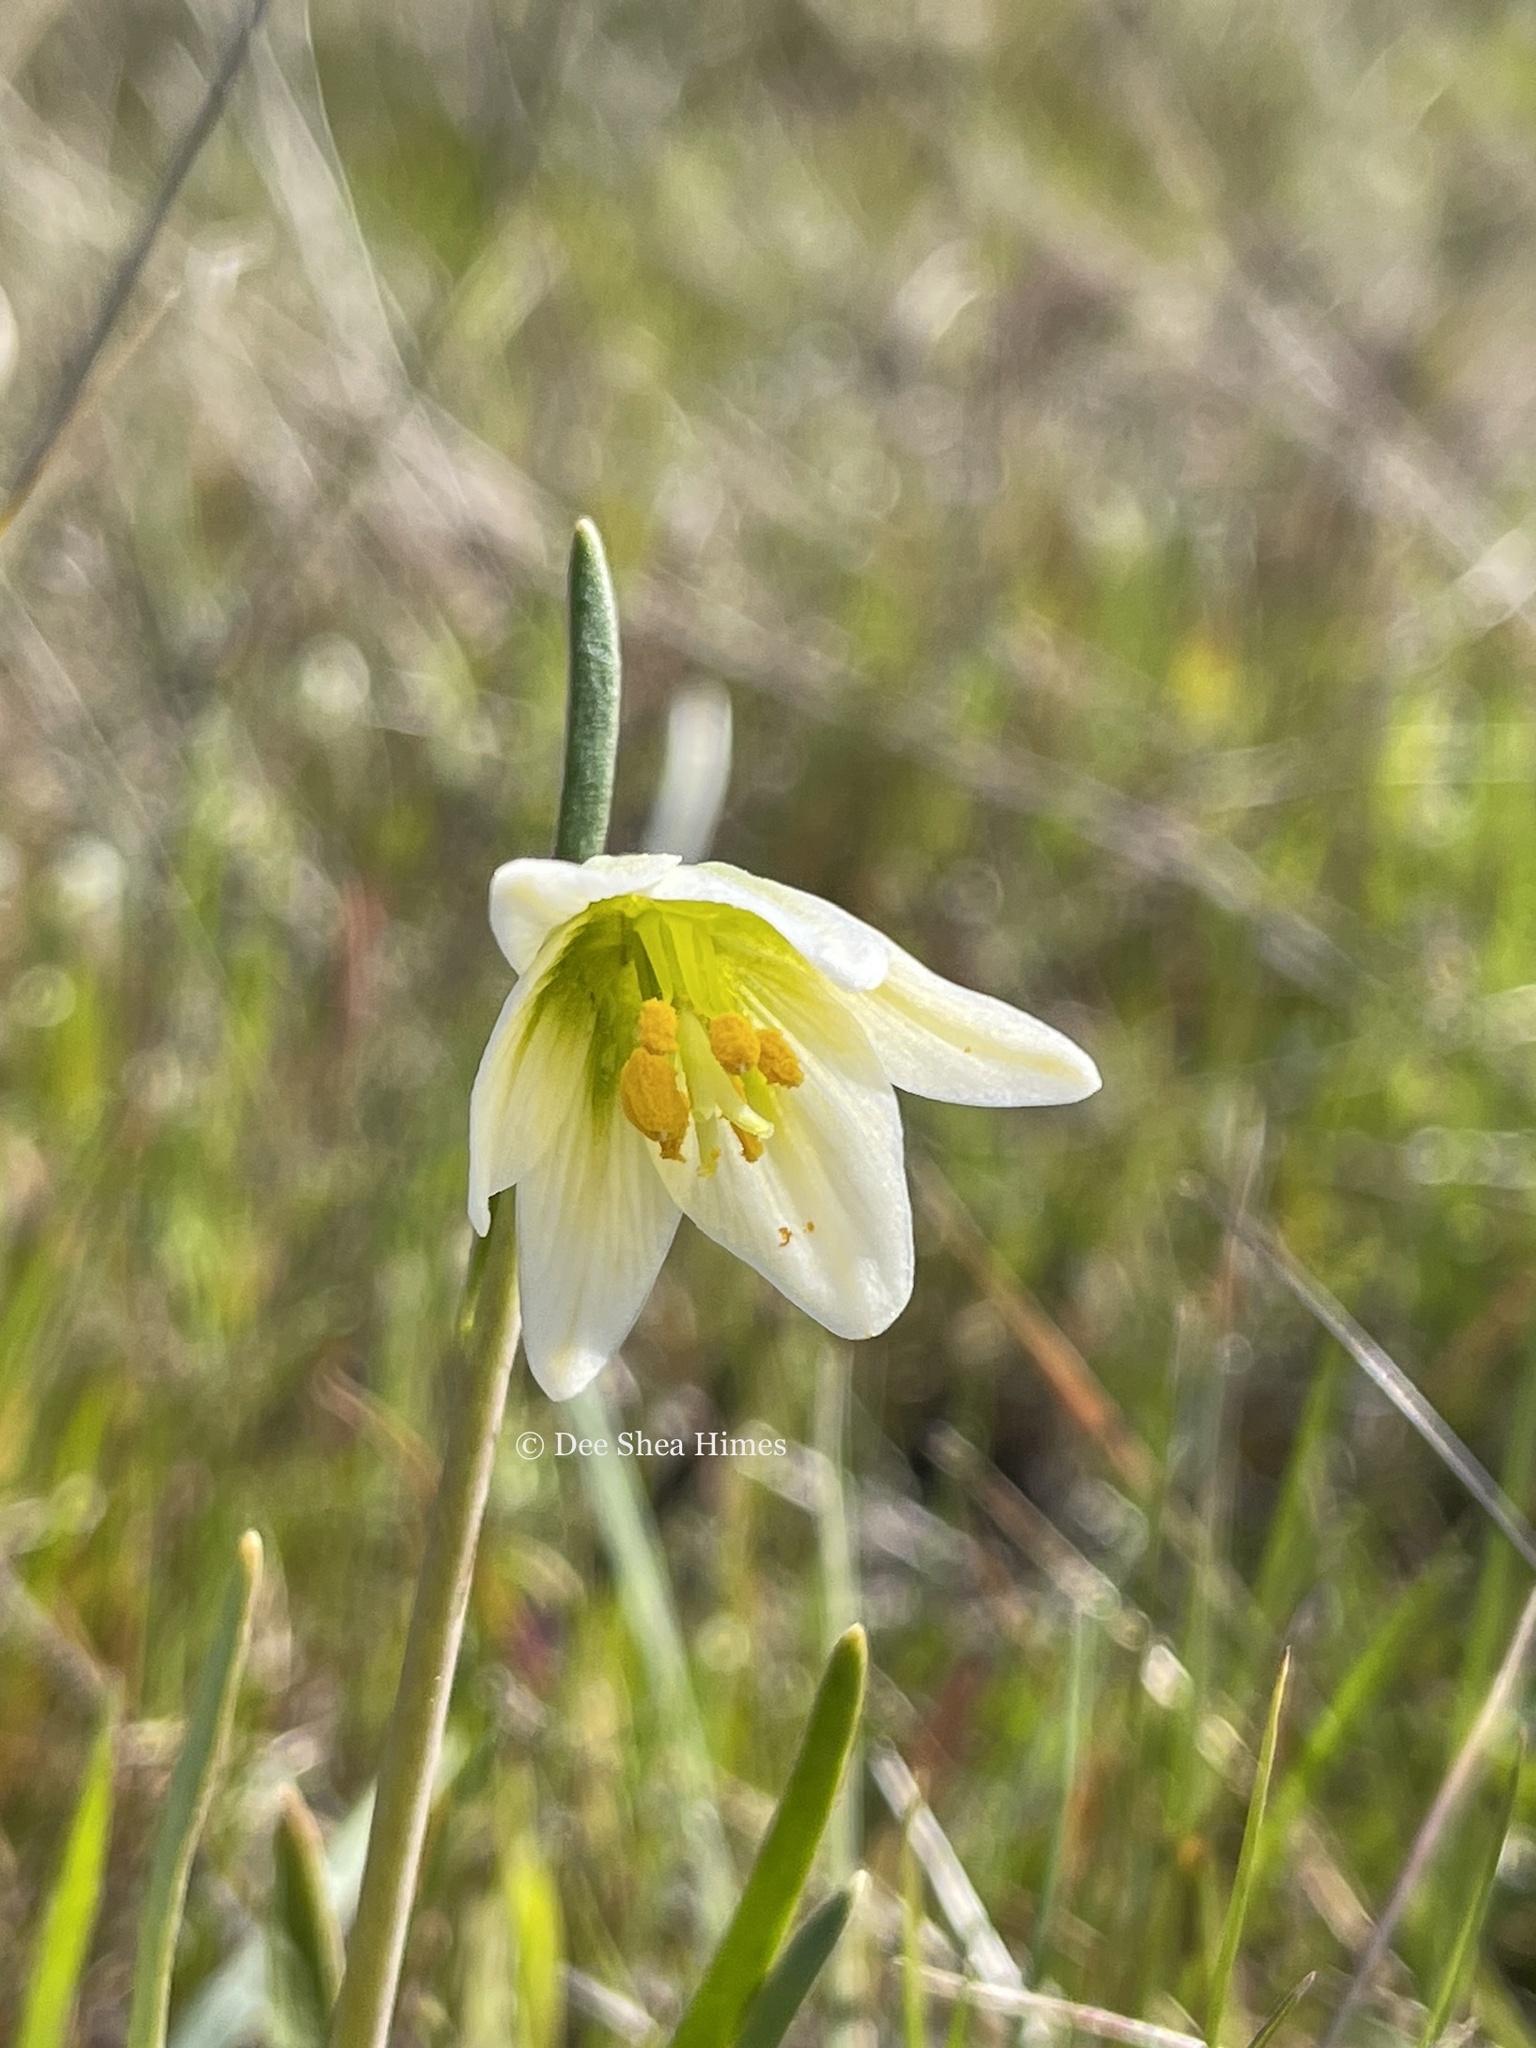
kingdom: Plantae
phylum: Tracheophyta
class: Liliopsida
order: Liliales
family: Liliaceae
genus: Fritillaria
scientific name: Fritillaria liliacea
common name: Fragrant fritillary
